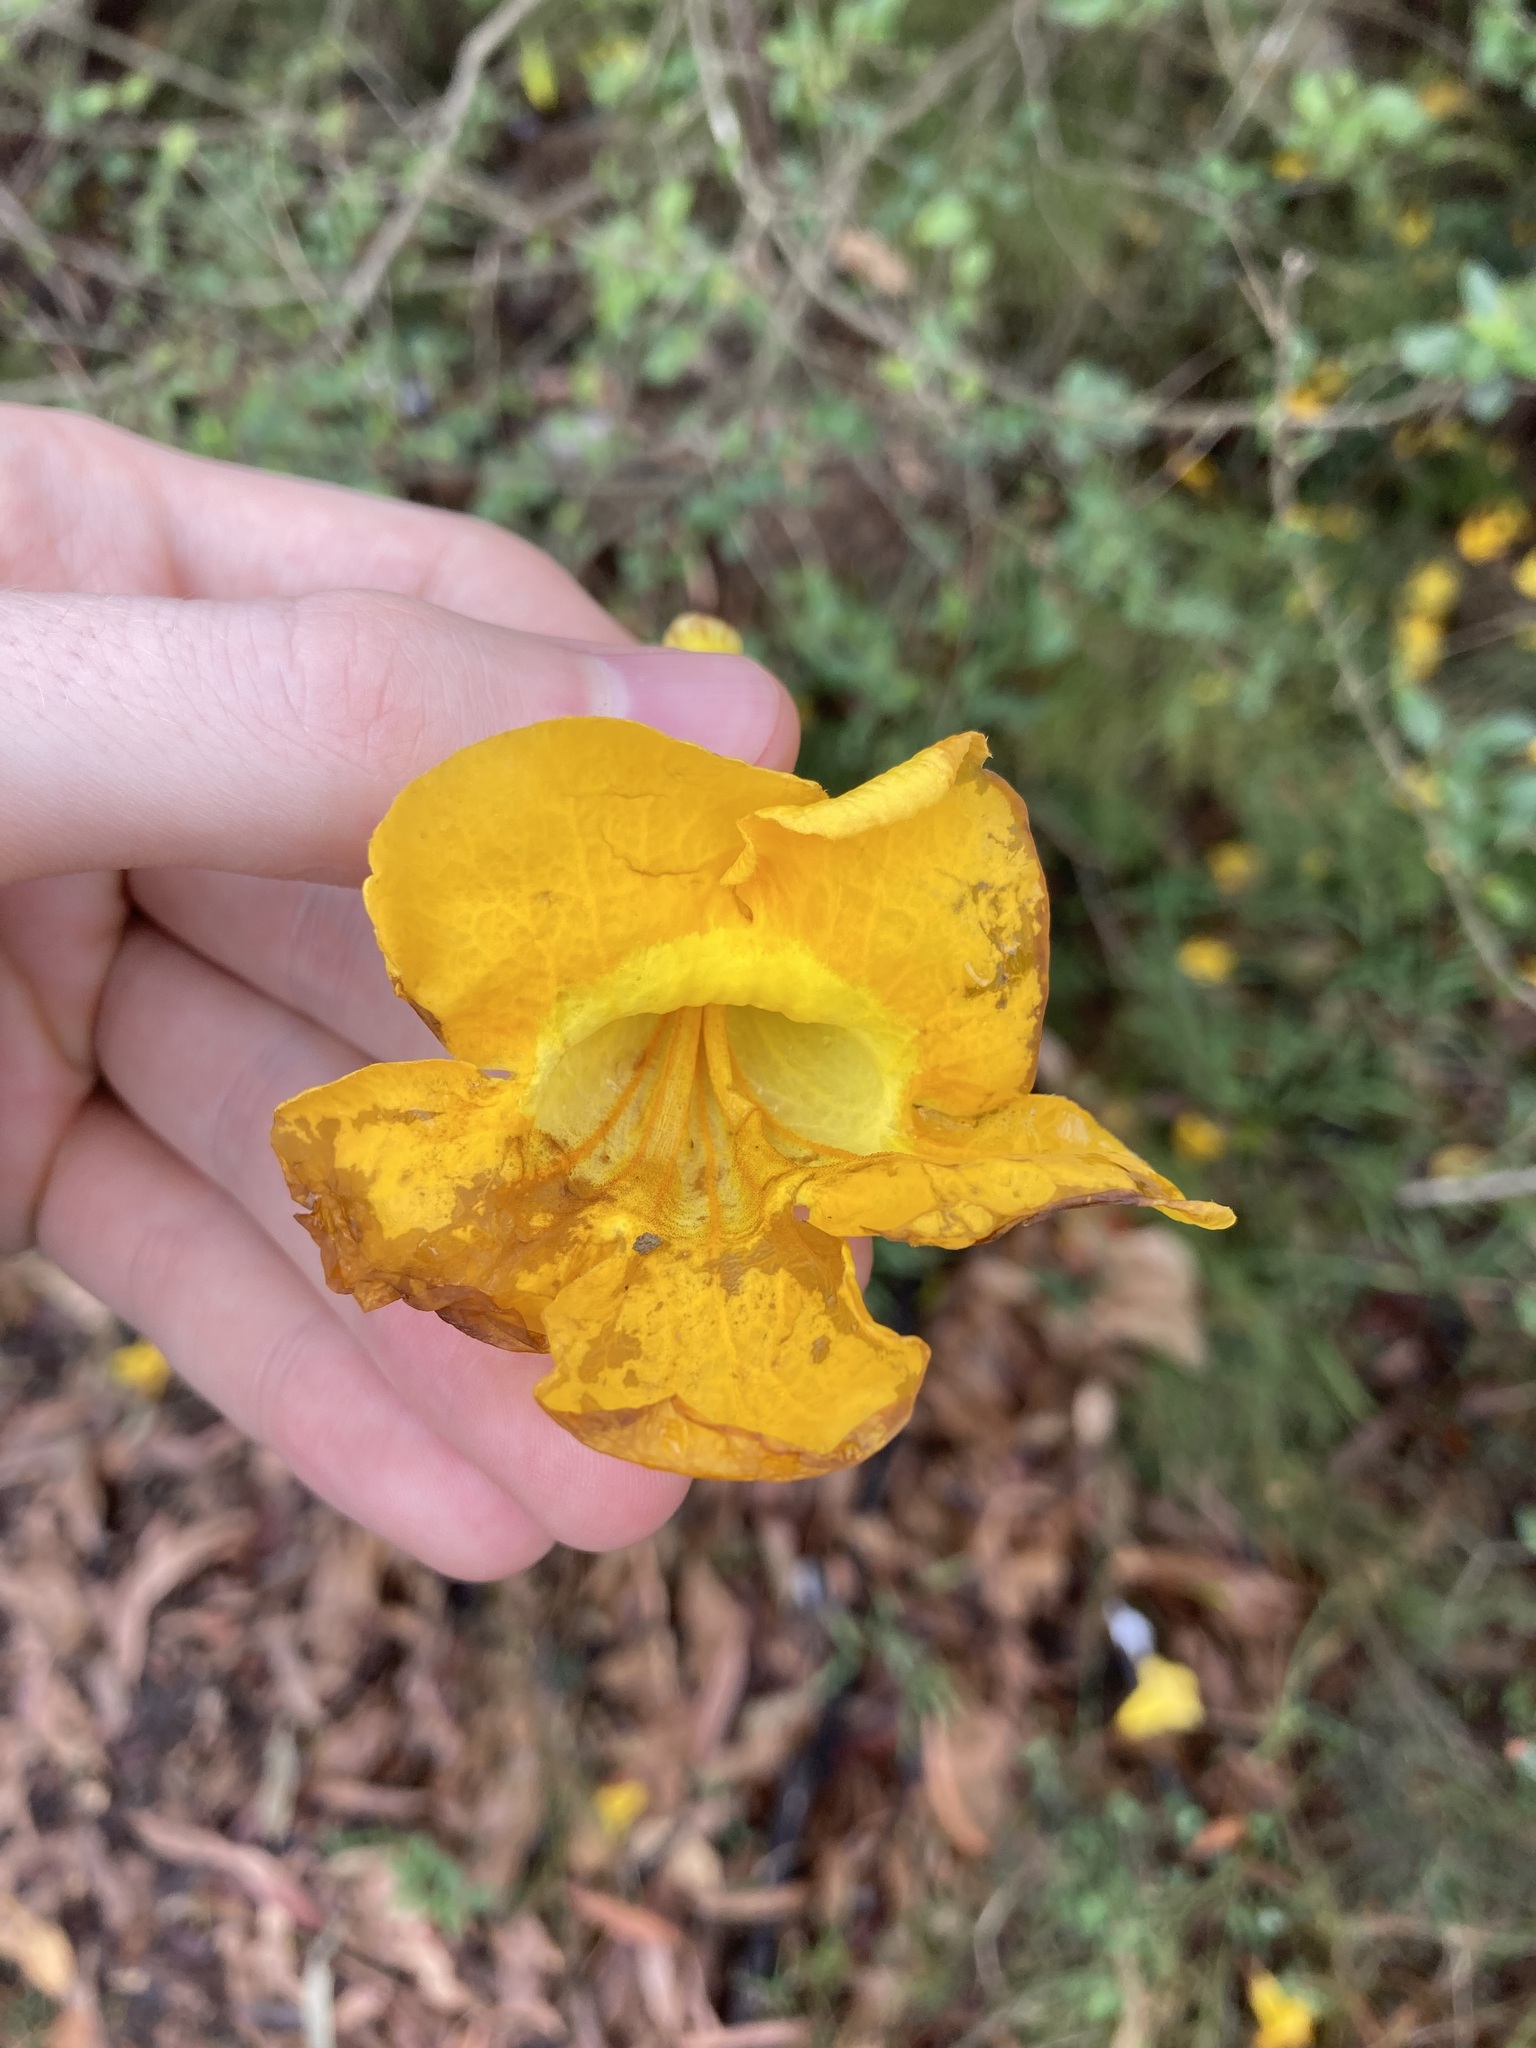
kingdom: Plantae
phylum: Tracheophyta
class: Magnoliopsida
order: Lamiales
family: Bignoniaceae
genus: Dolichandra
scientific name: Dolichandra unguis-cati
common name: Catclaw vine
